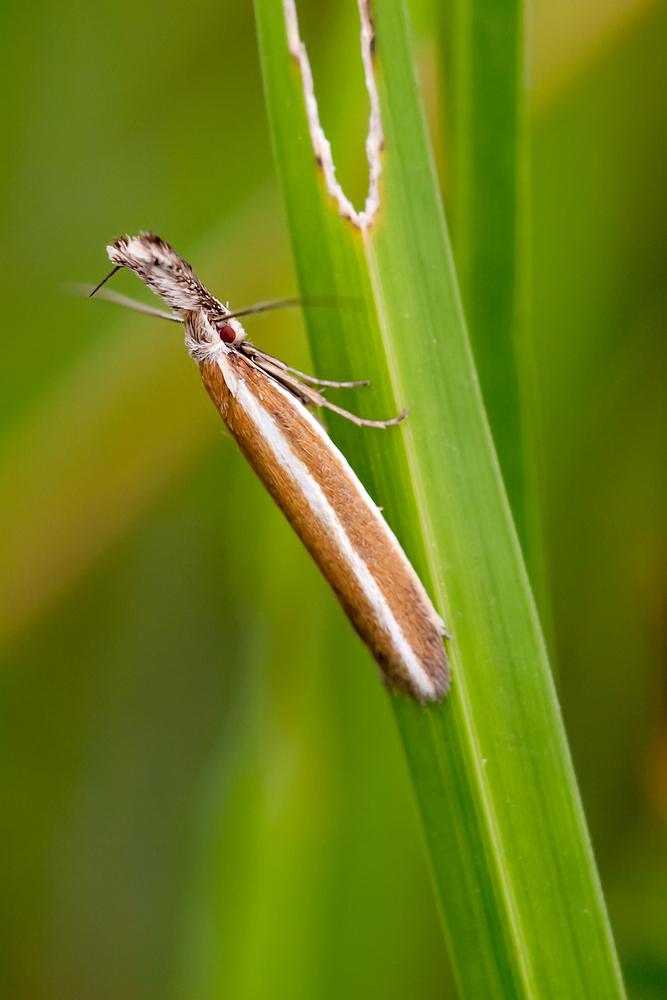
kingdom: Animalia
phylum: Arthropoda
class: Insecta
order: Lepidoptera
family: Oecophoridae
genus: Pleurota
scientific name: Pleurota aristella
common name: Southern streak
